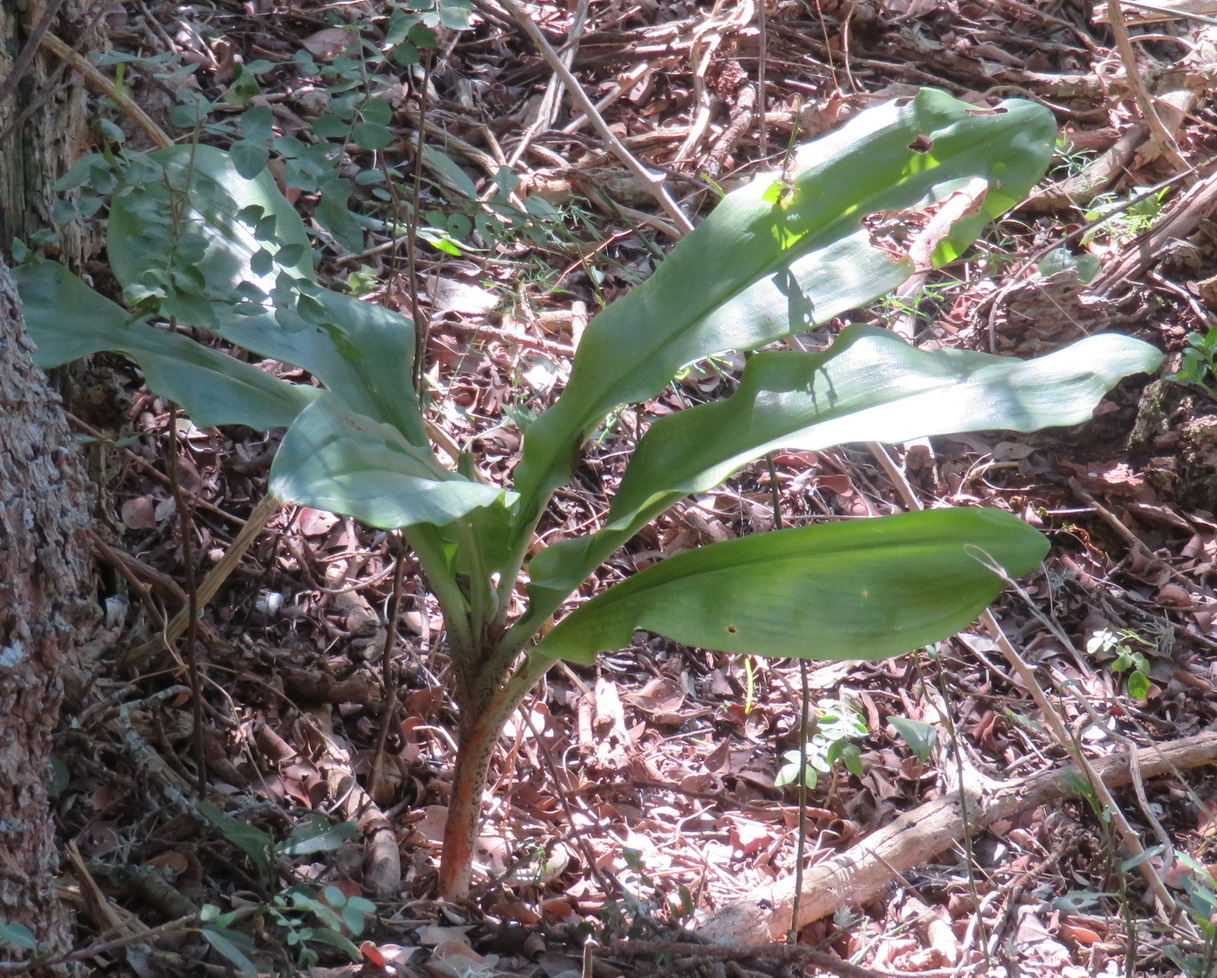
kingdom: Plantae
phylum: Tracheophyta
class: Liliopsida
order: Asparagales
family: Amaryllidaceae
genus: Scadoxus
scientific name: Scadoxus puniceus
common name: Royal-paintbrush
